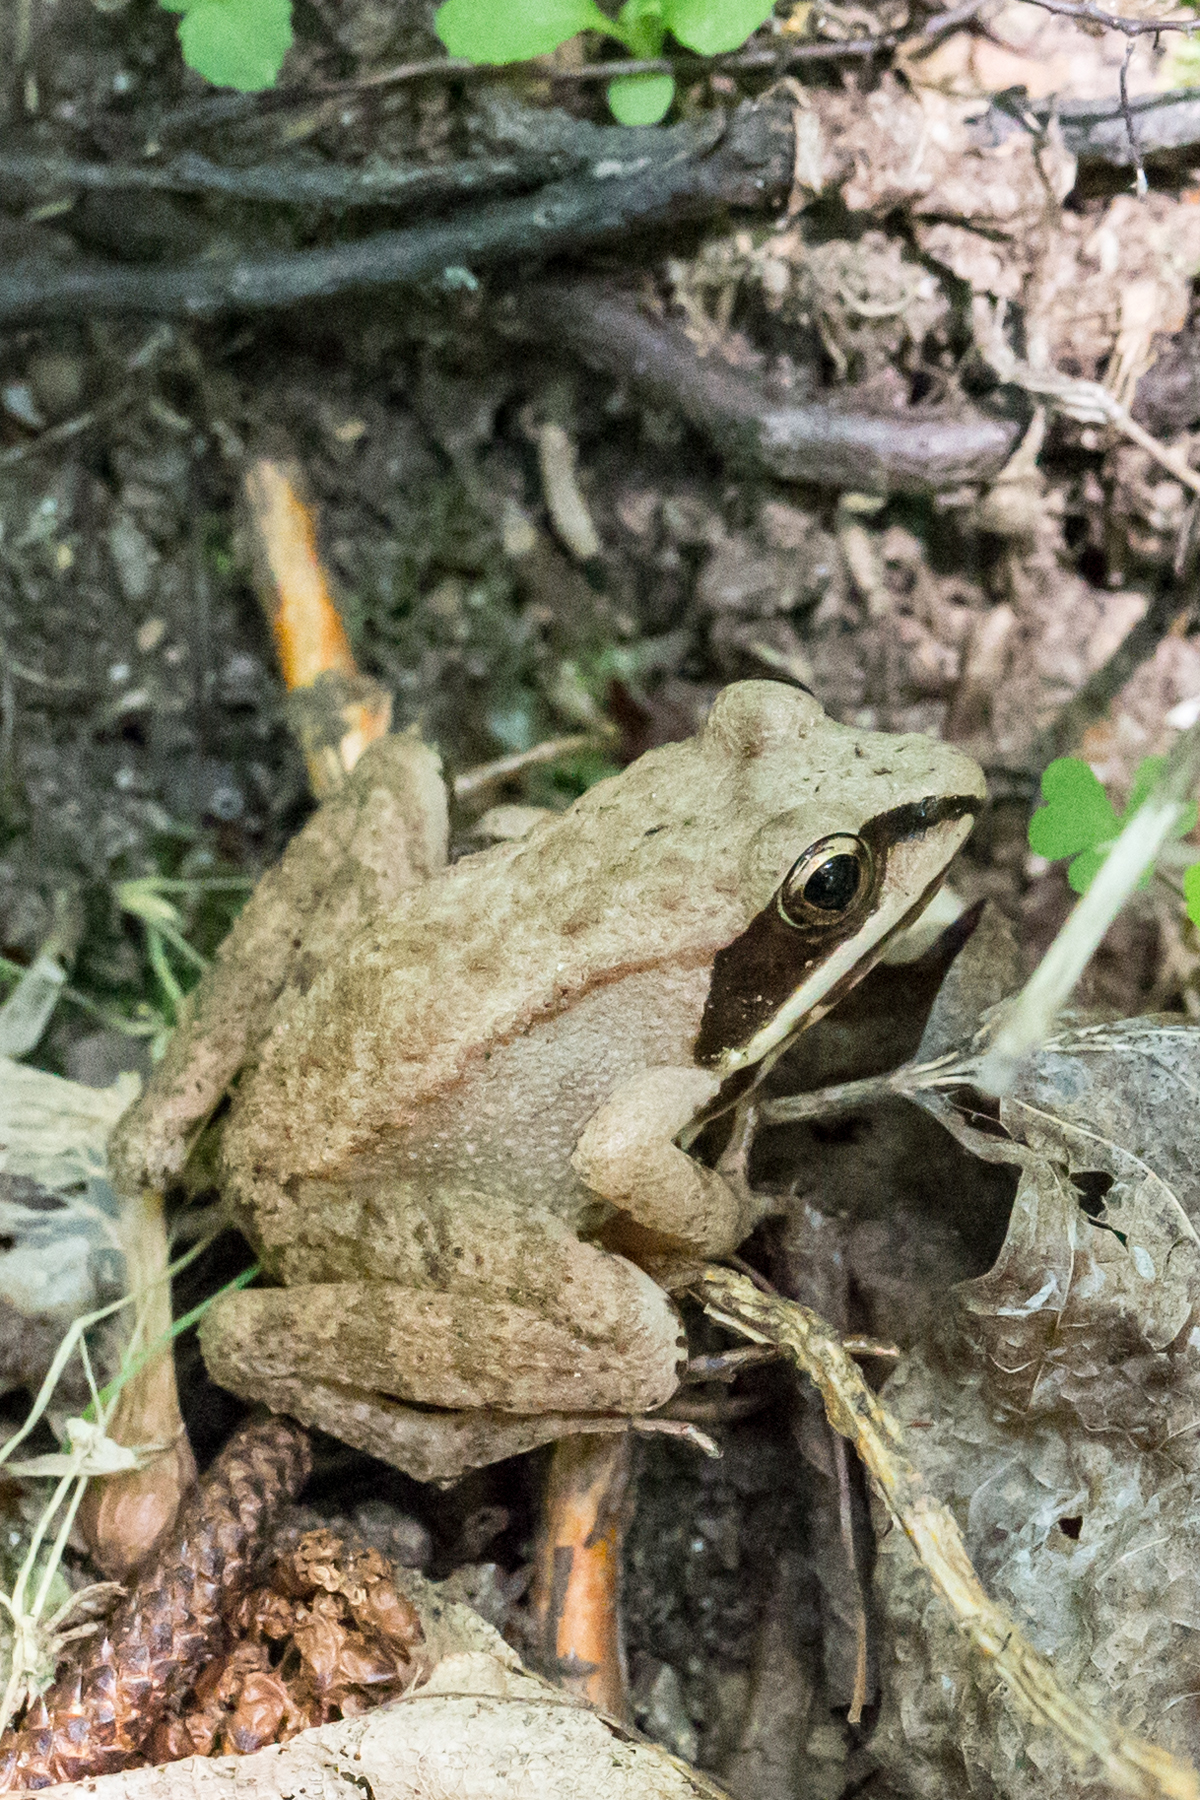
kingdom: Animalia
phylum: Chordata
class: Amphibia
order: Anura
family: Ranidae
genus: Lithobates
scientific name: Lithobates sylvaticus
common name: Wood frog
